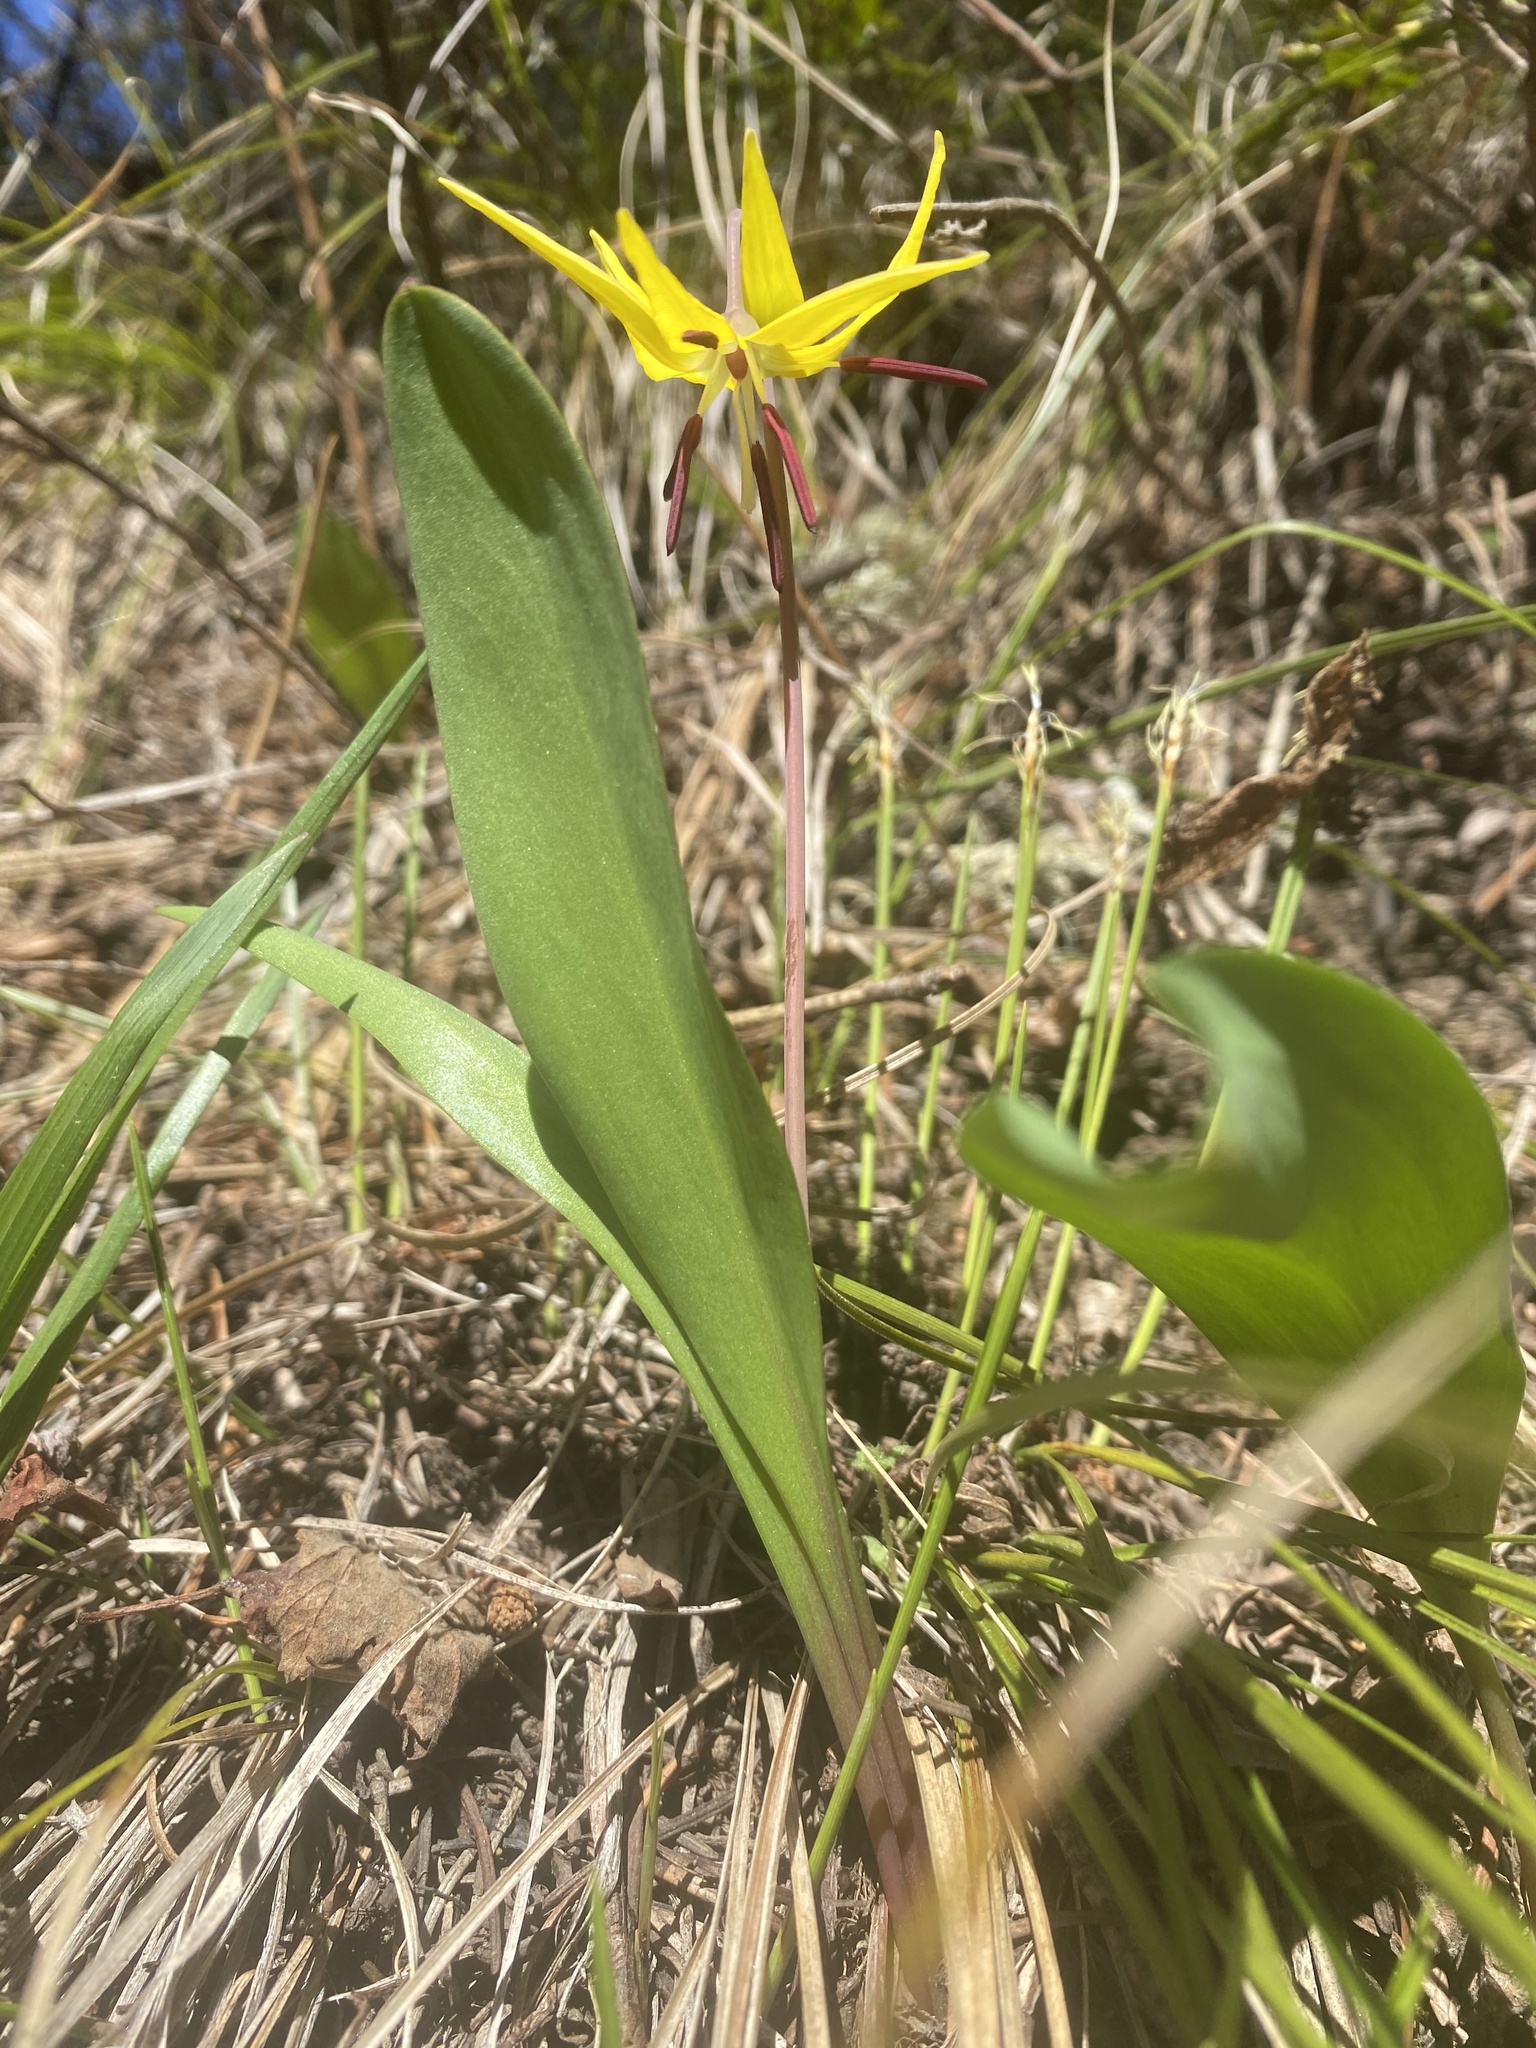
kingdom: Plantae
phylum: Tracheophyta
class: Liliopsida
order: Liliales
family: Liliaceae
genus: Erythronium
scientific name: Erythronium grandiflorum
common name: Avalanche-lily
